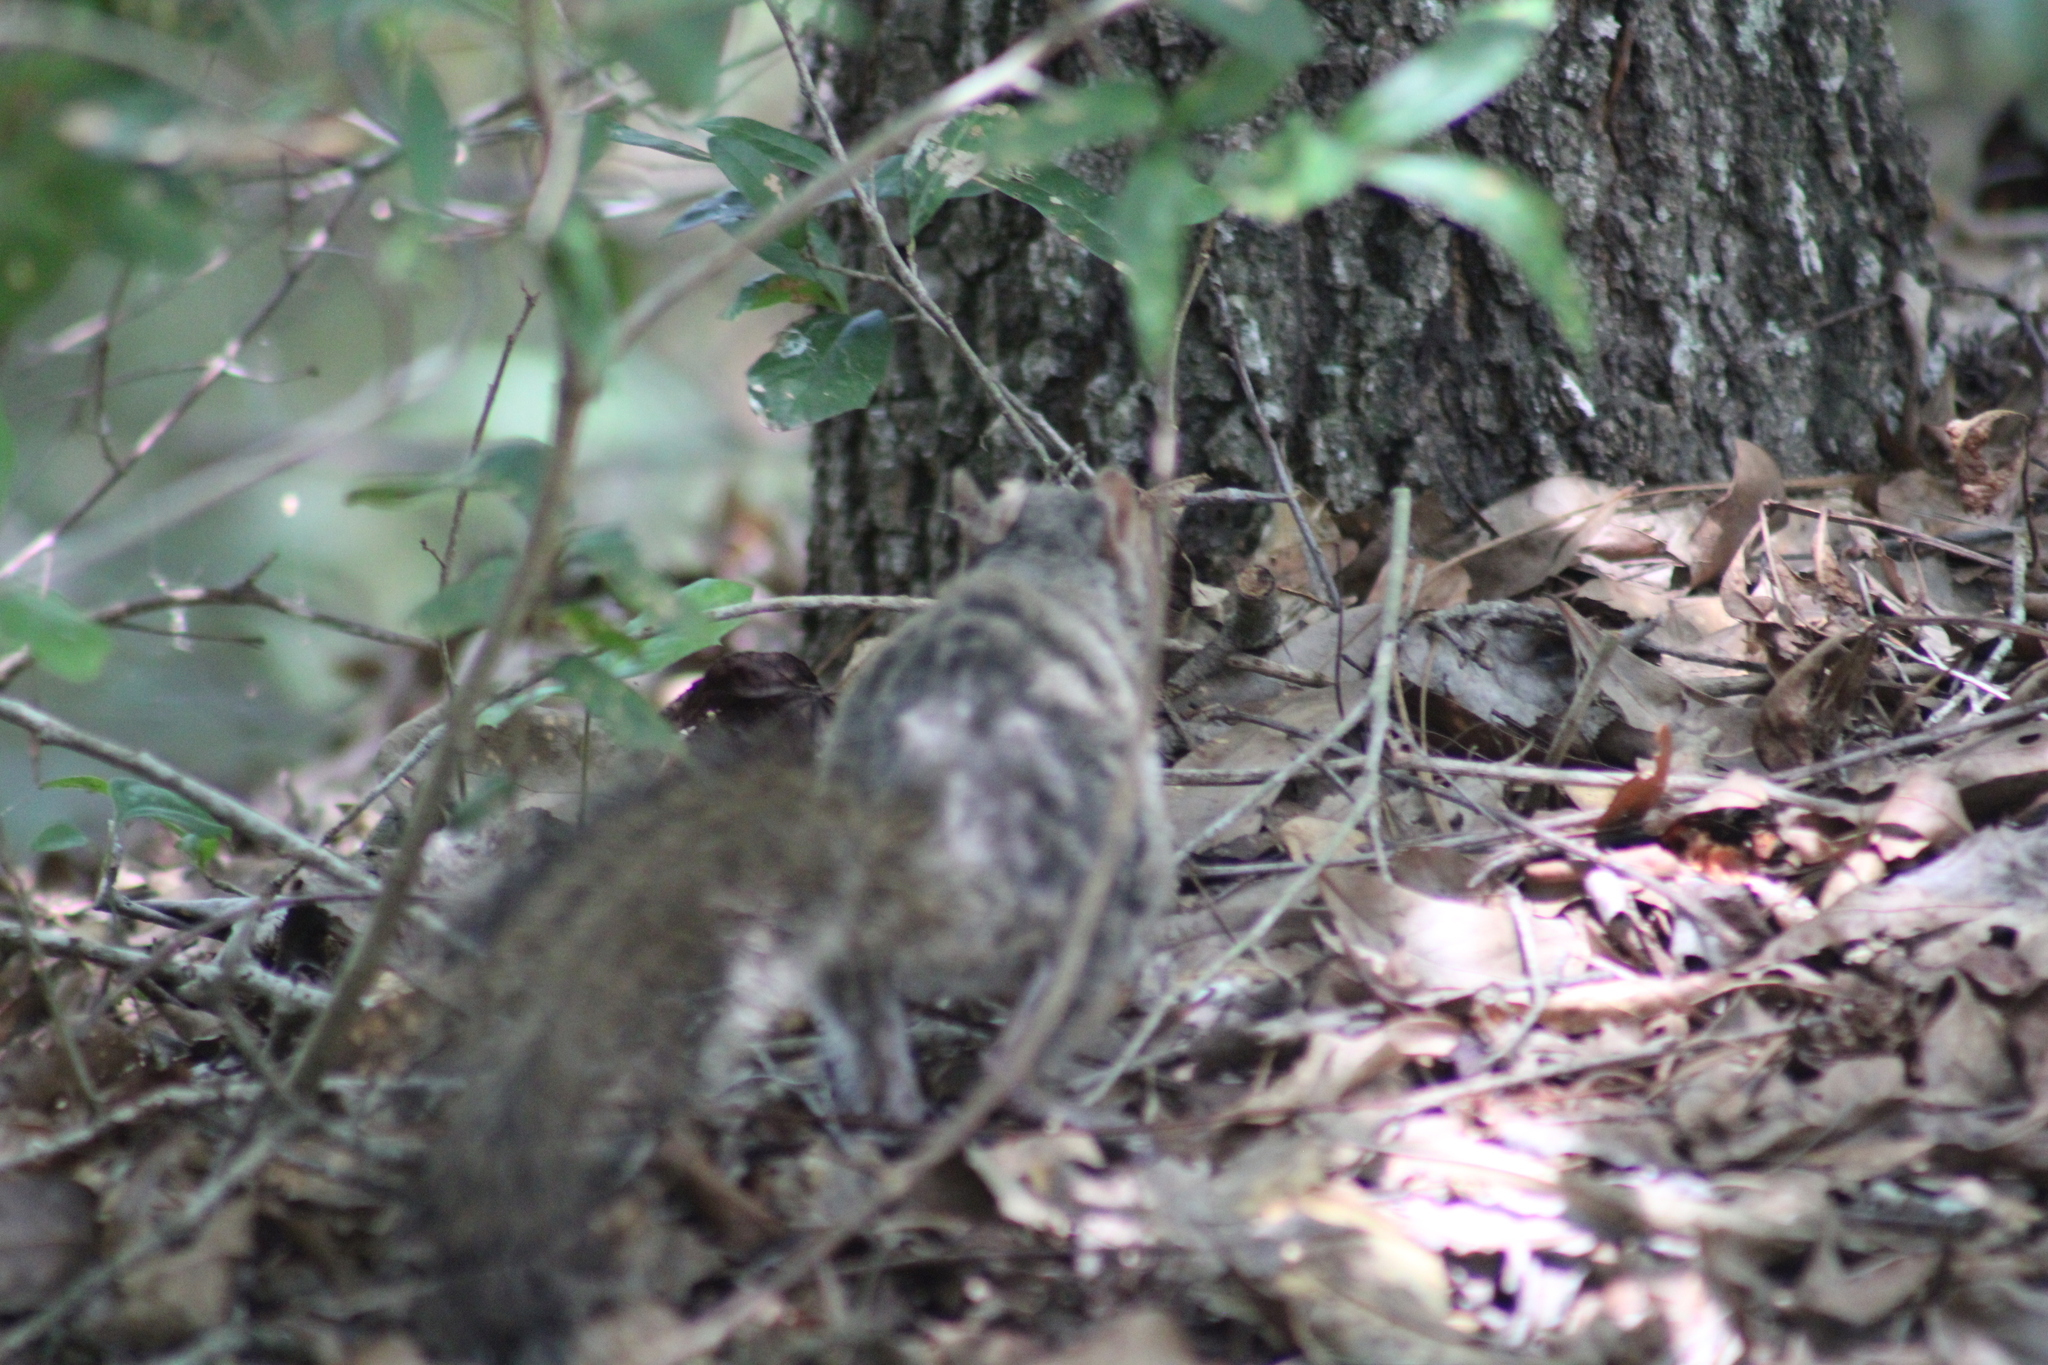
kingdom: Animalia
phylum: Chordata
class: Mammalia
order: Rodentia
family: Sciuridae
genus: Sciurus
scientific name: Sciurus carolinensis
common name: Eastern gray squirrel
